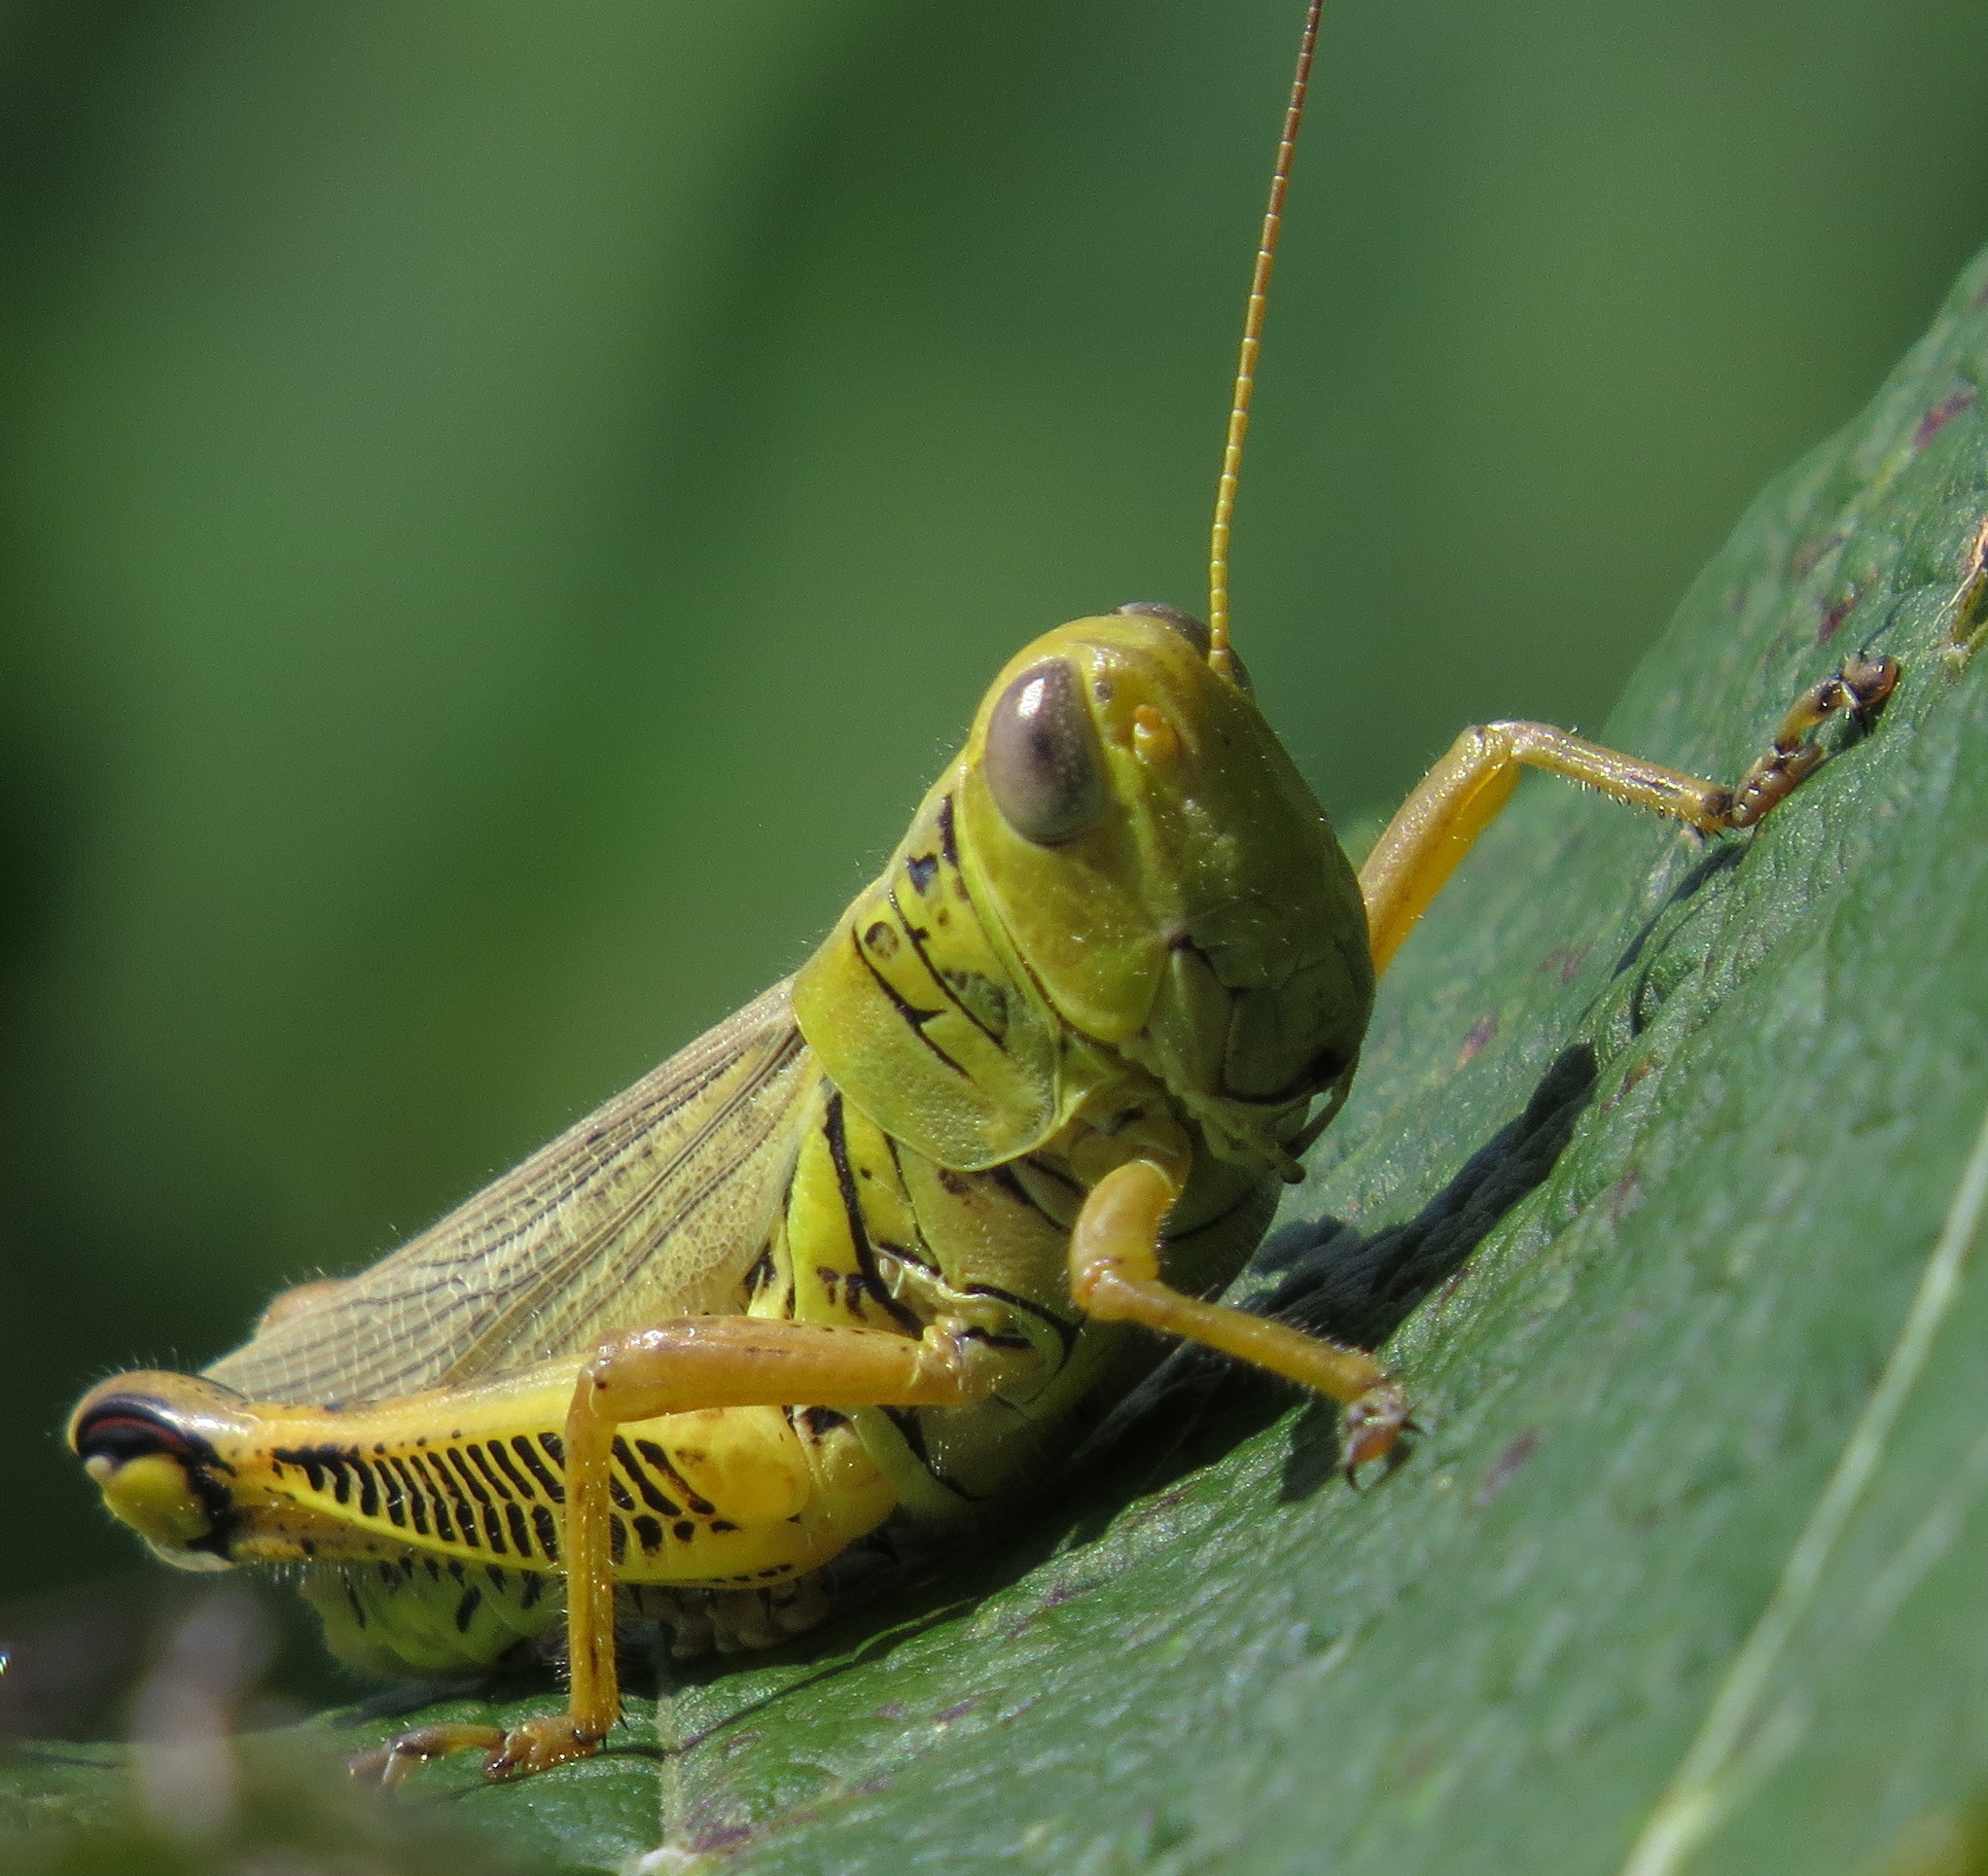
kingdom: Animalia
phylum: Arthropoda
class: Insecta
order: Orthoptera
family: Acrididae
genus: Melanoplus
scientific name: Melanoplus differentialis
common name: Differential grasshopper
